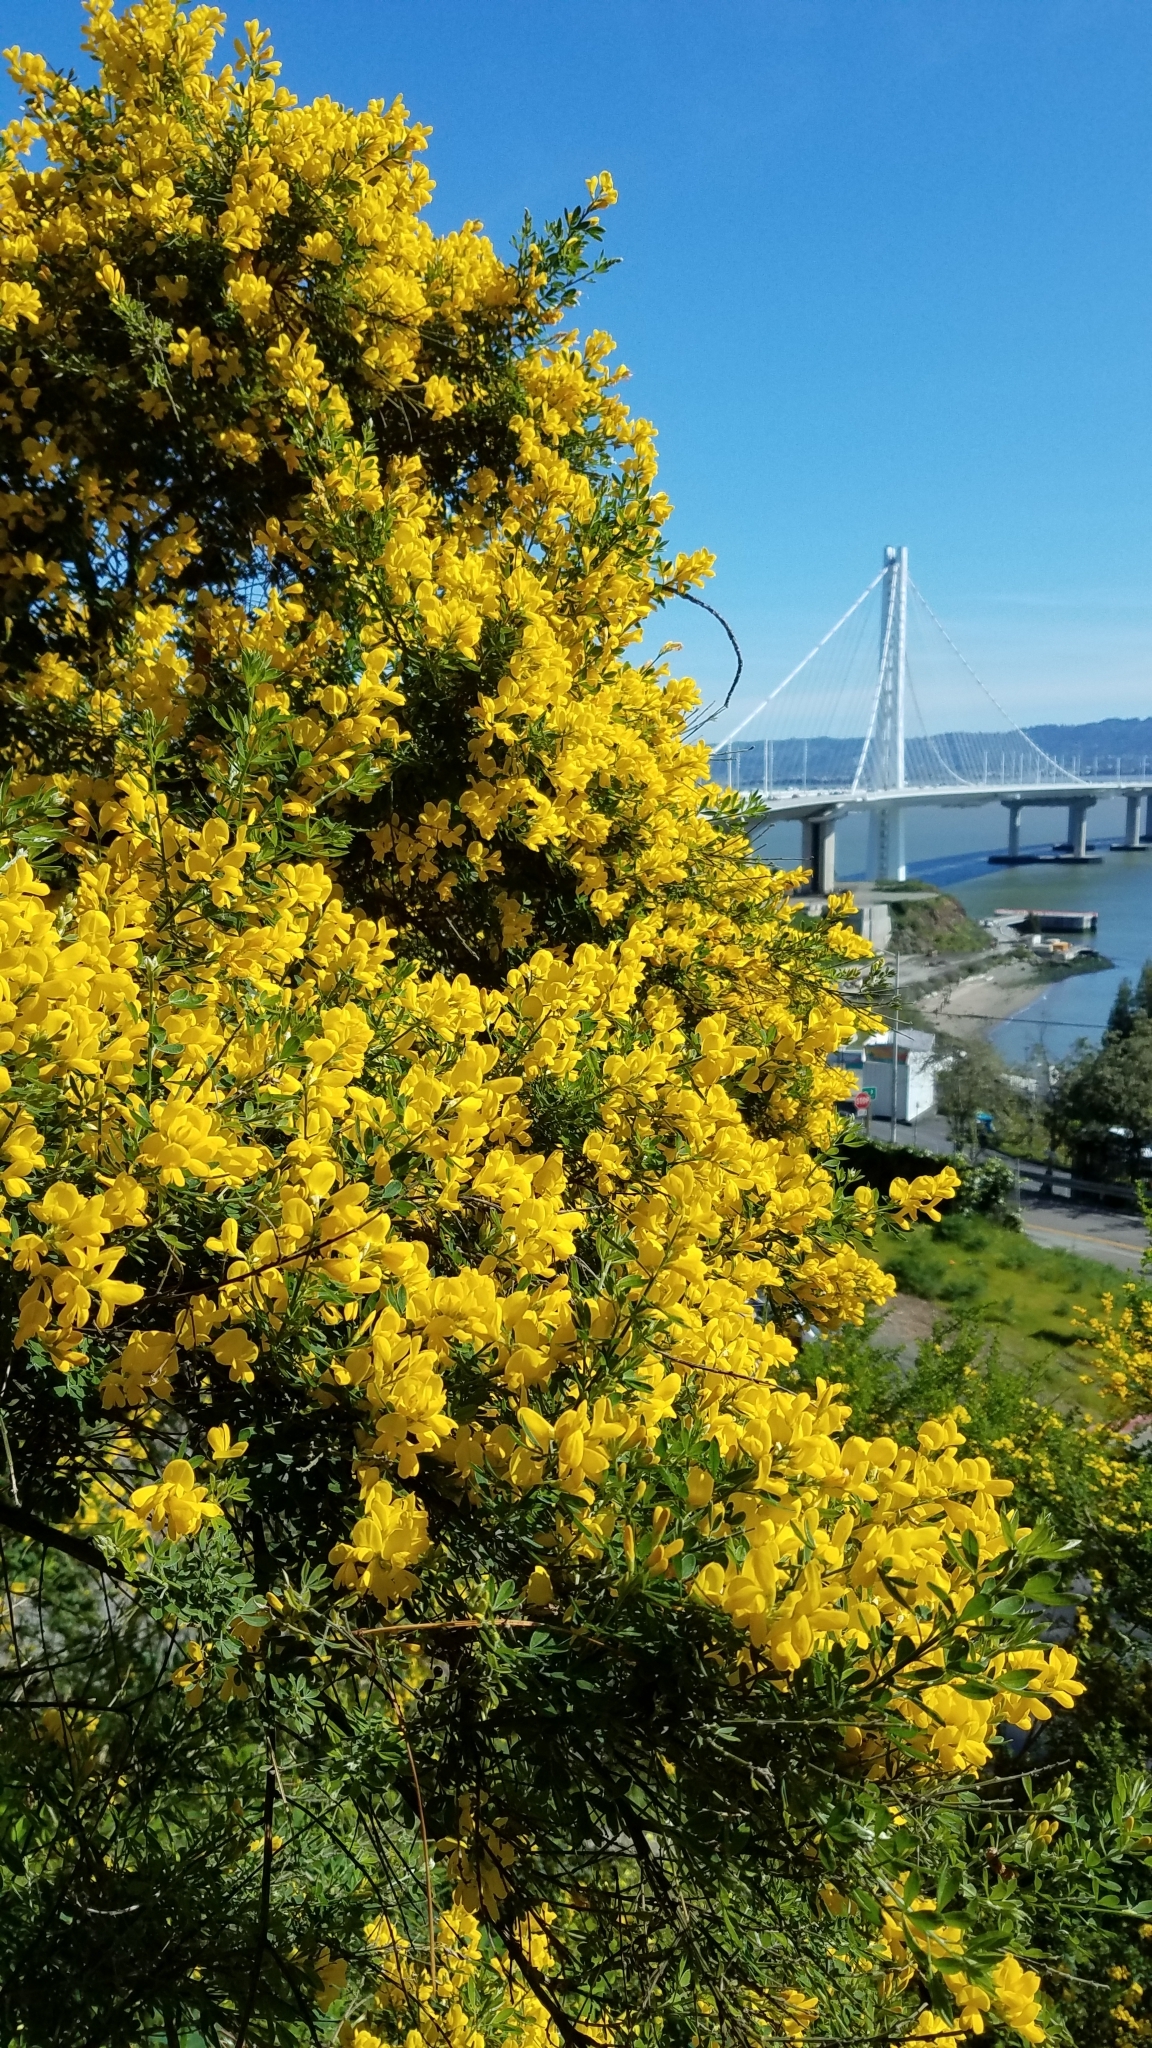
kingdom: Plantae
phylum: Tracheophyta
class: Magnoliopsida
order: Fabales
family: Fabaceae
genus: Genista
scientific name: Genista monspessulana
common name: Montpellier broom
